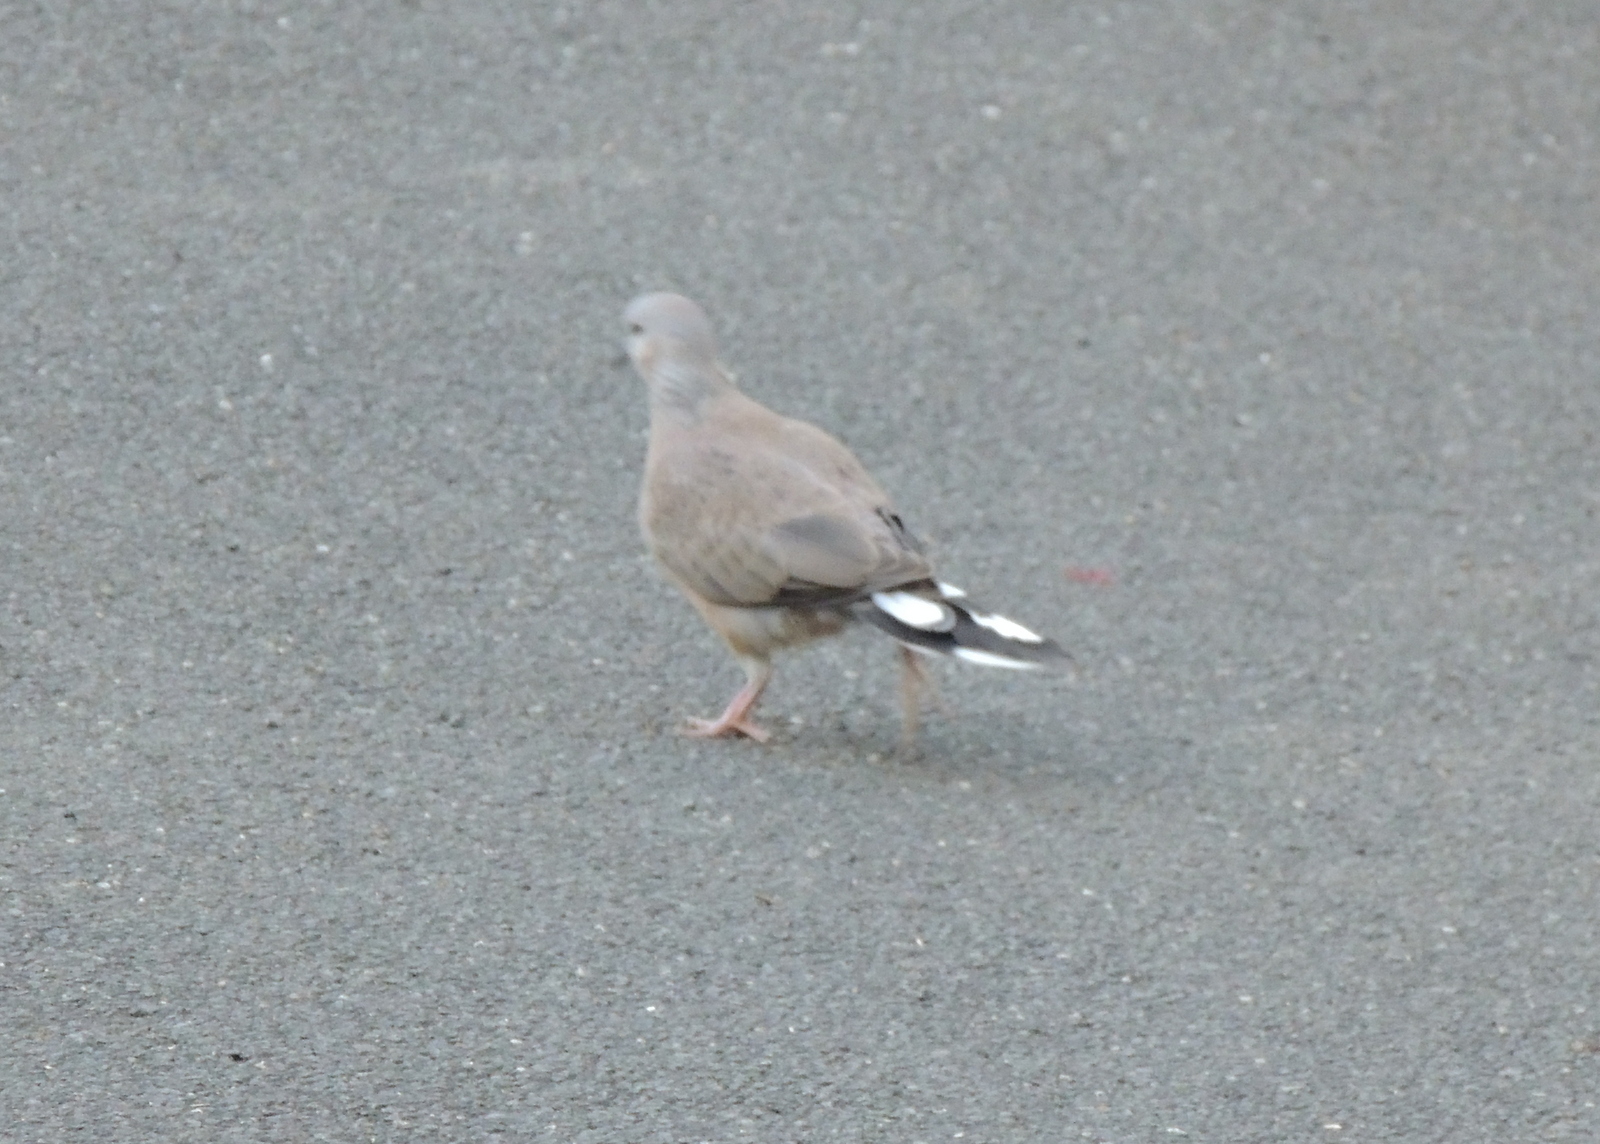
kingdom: Animalia
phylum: Chordata
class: Aves
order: Columbiformes
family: Columbidae
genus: Spilopelia
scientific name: Spilopelia chinensis
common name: Spotted dove
